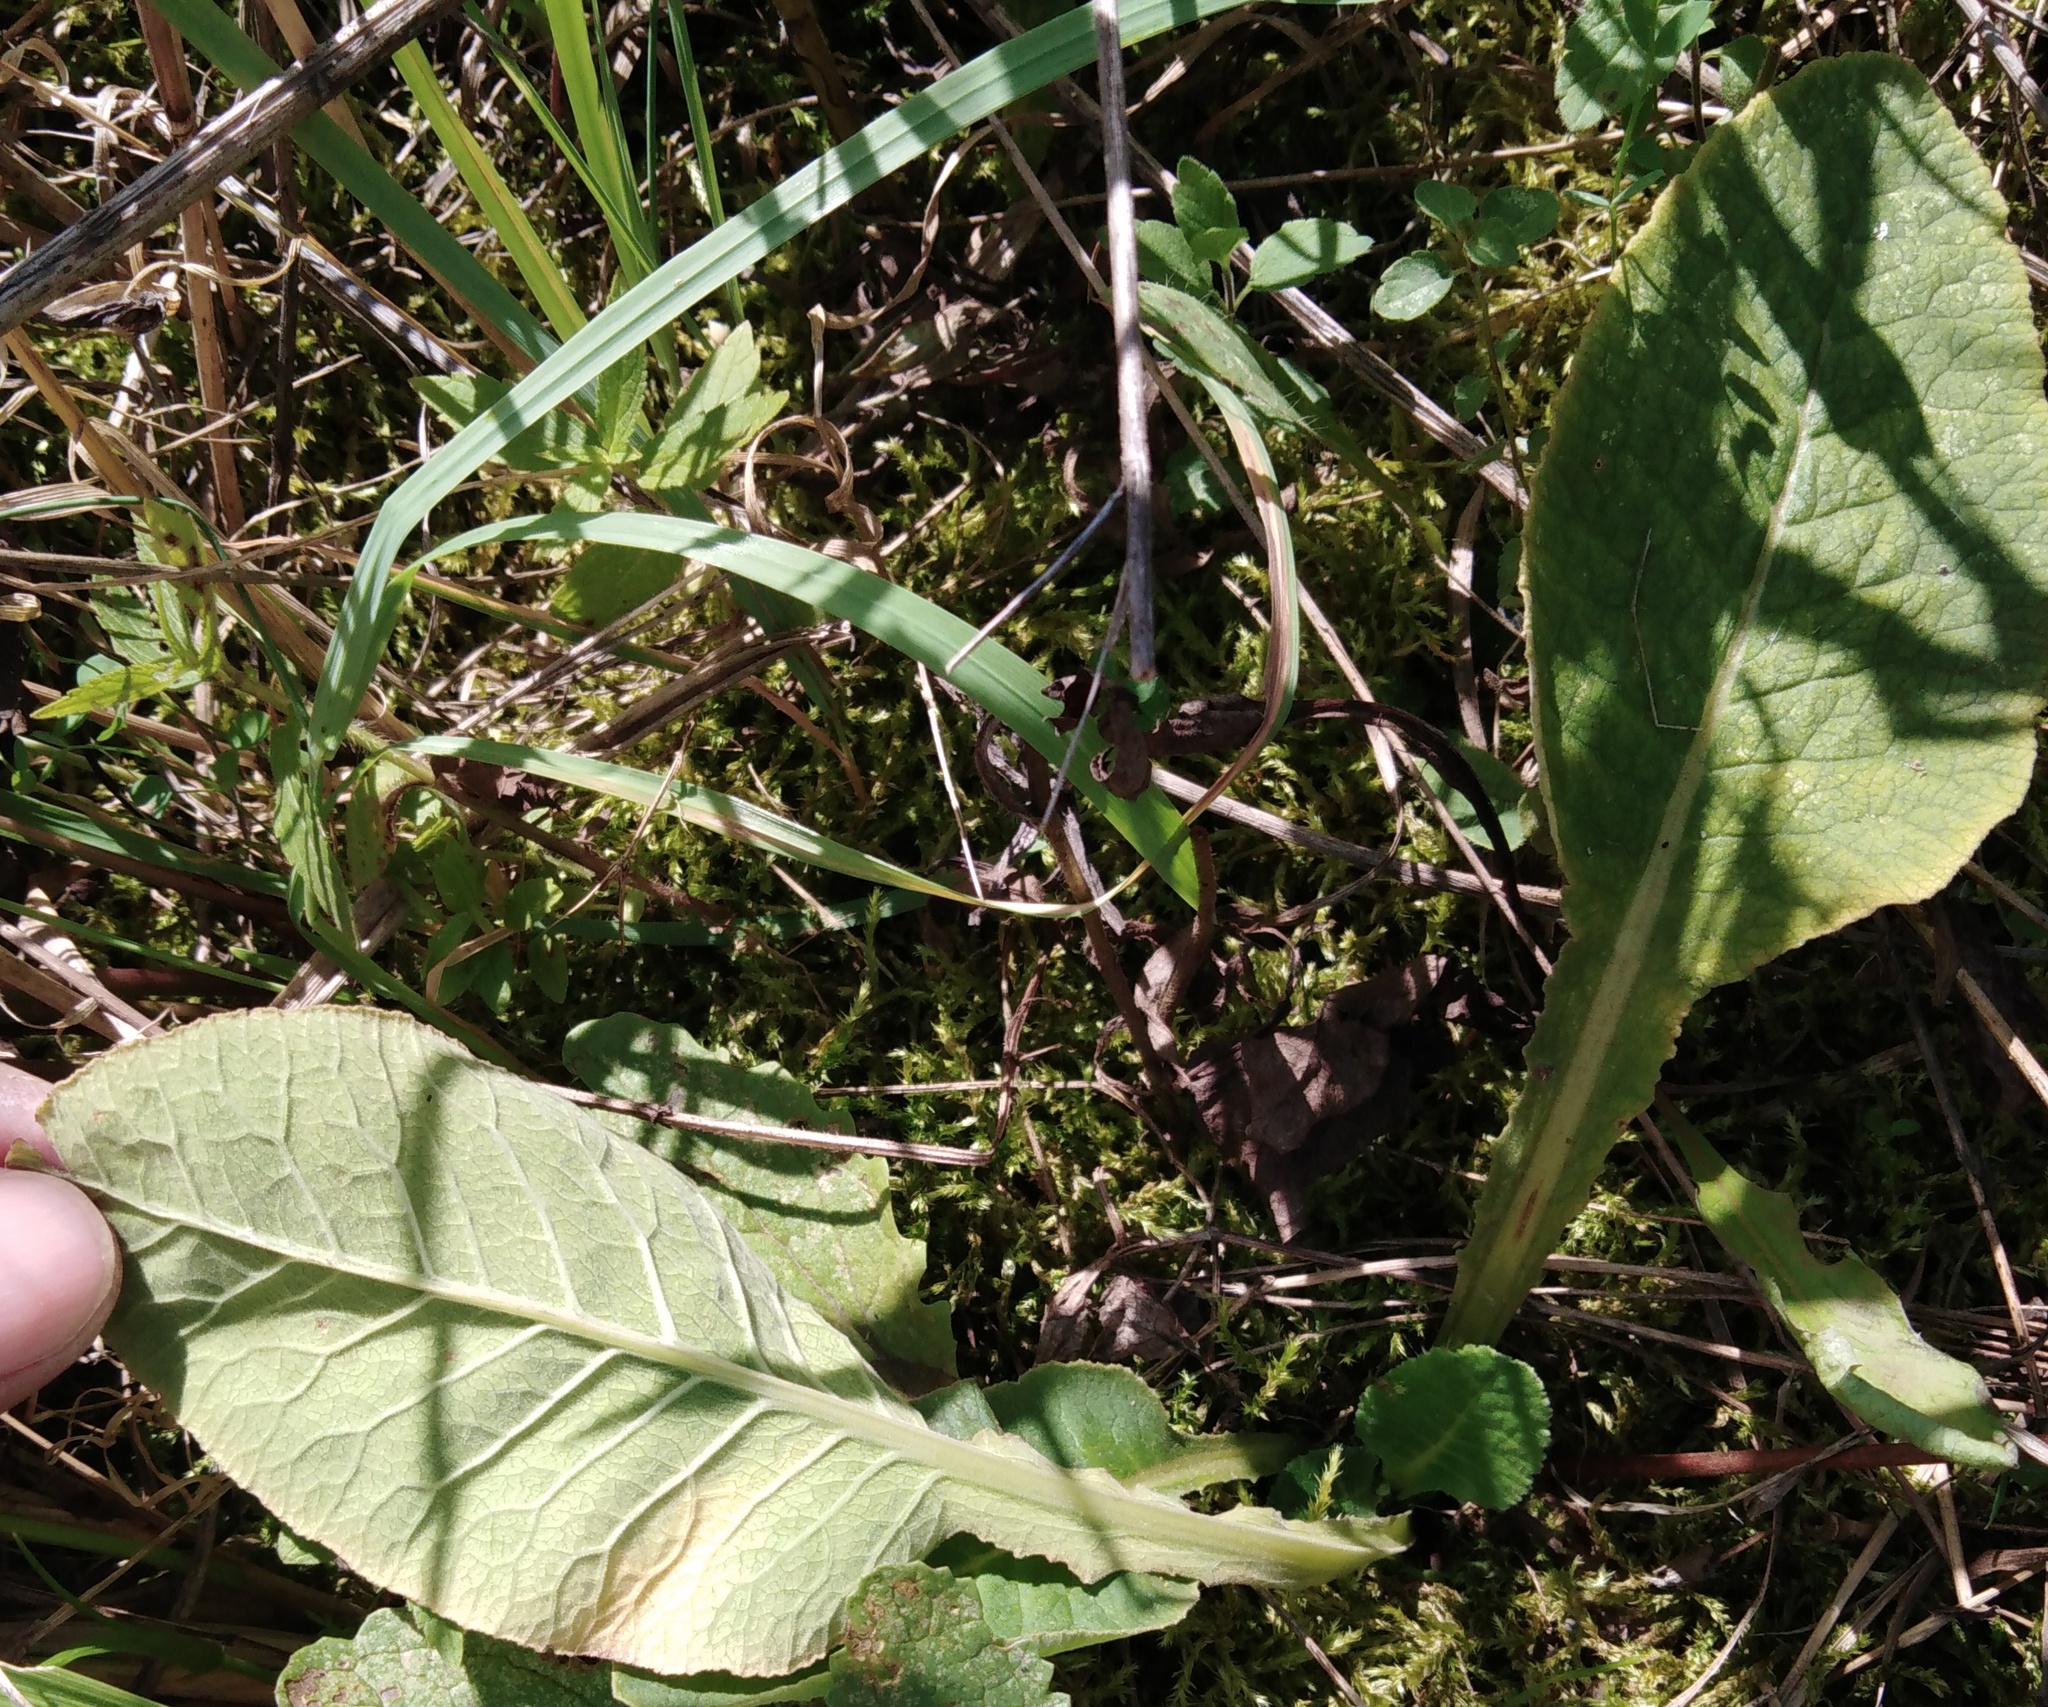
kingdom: Plantae
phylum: Tracheophyta
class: Magnoliopsida
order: Ericales
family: Primulaceae
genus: Primula
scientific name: Primula veris
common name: Cowslip
